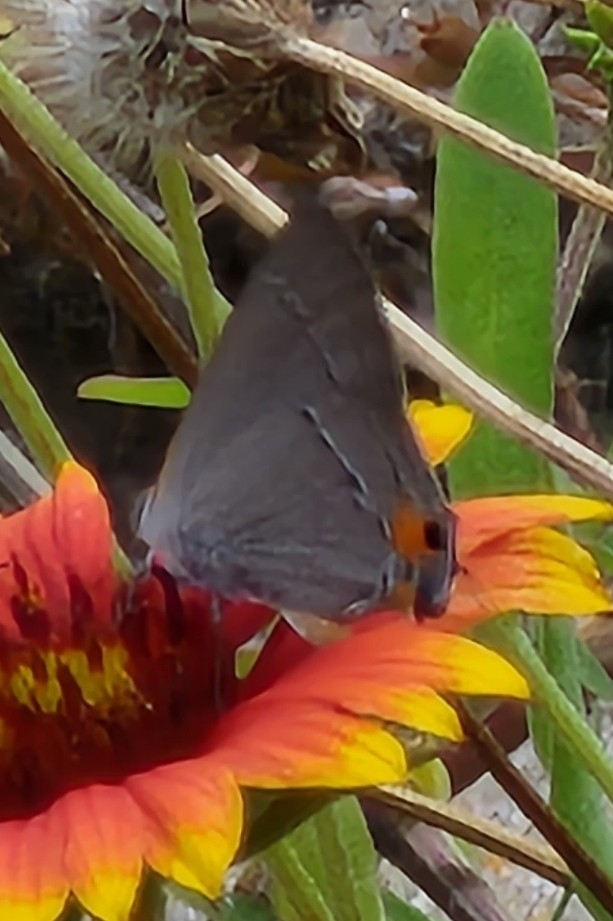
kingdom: Animalia
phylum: Arthropoda
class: Insecta
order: Lepidoptera
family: Lycaenidae
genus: Strymon
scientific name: Strymon melinus
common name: Gray hairstreak
